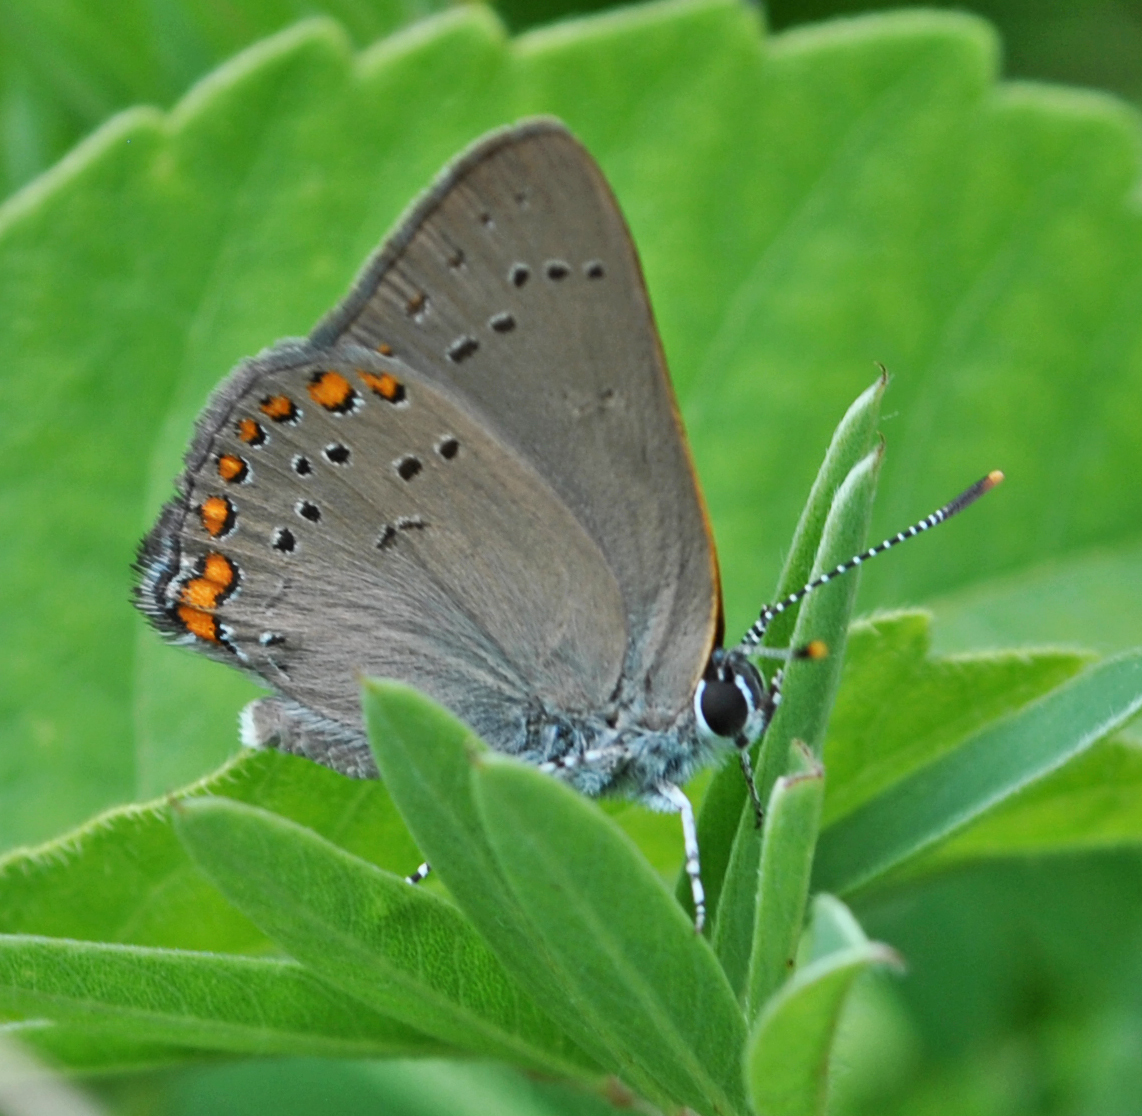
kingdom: Animalia
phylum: Arthropoda
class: Insecta
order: Lepidoptera
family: Lycaenidae
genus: Harkenclenus
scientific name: Harkenclenus titus
